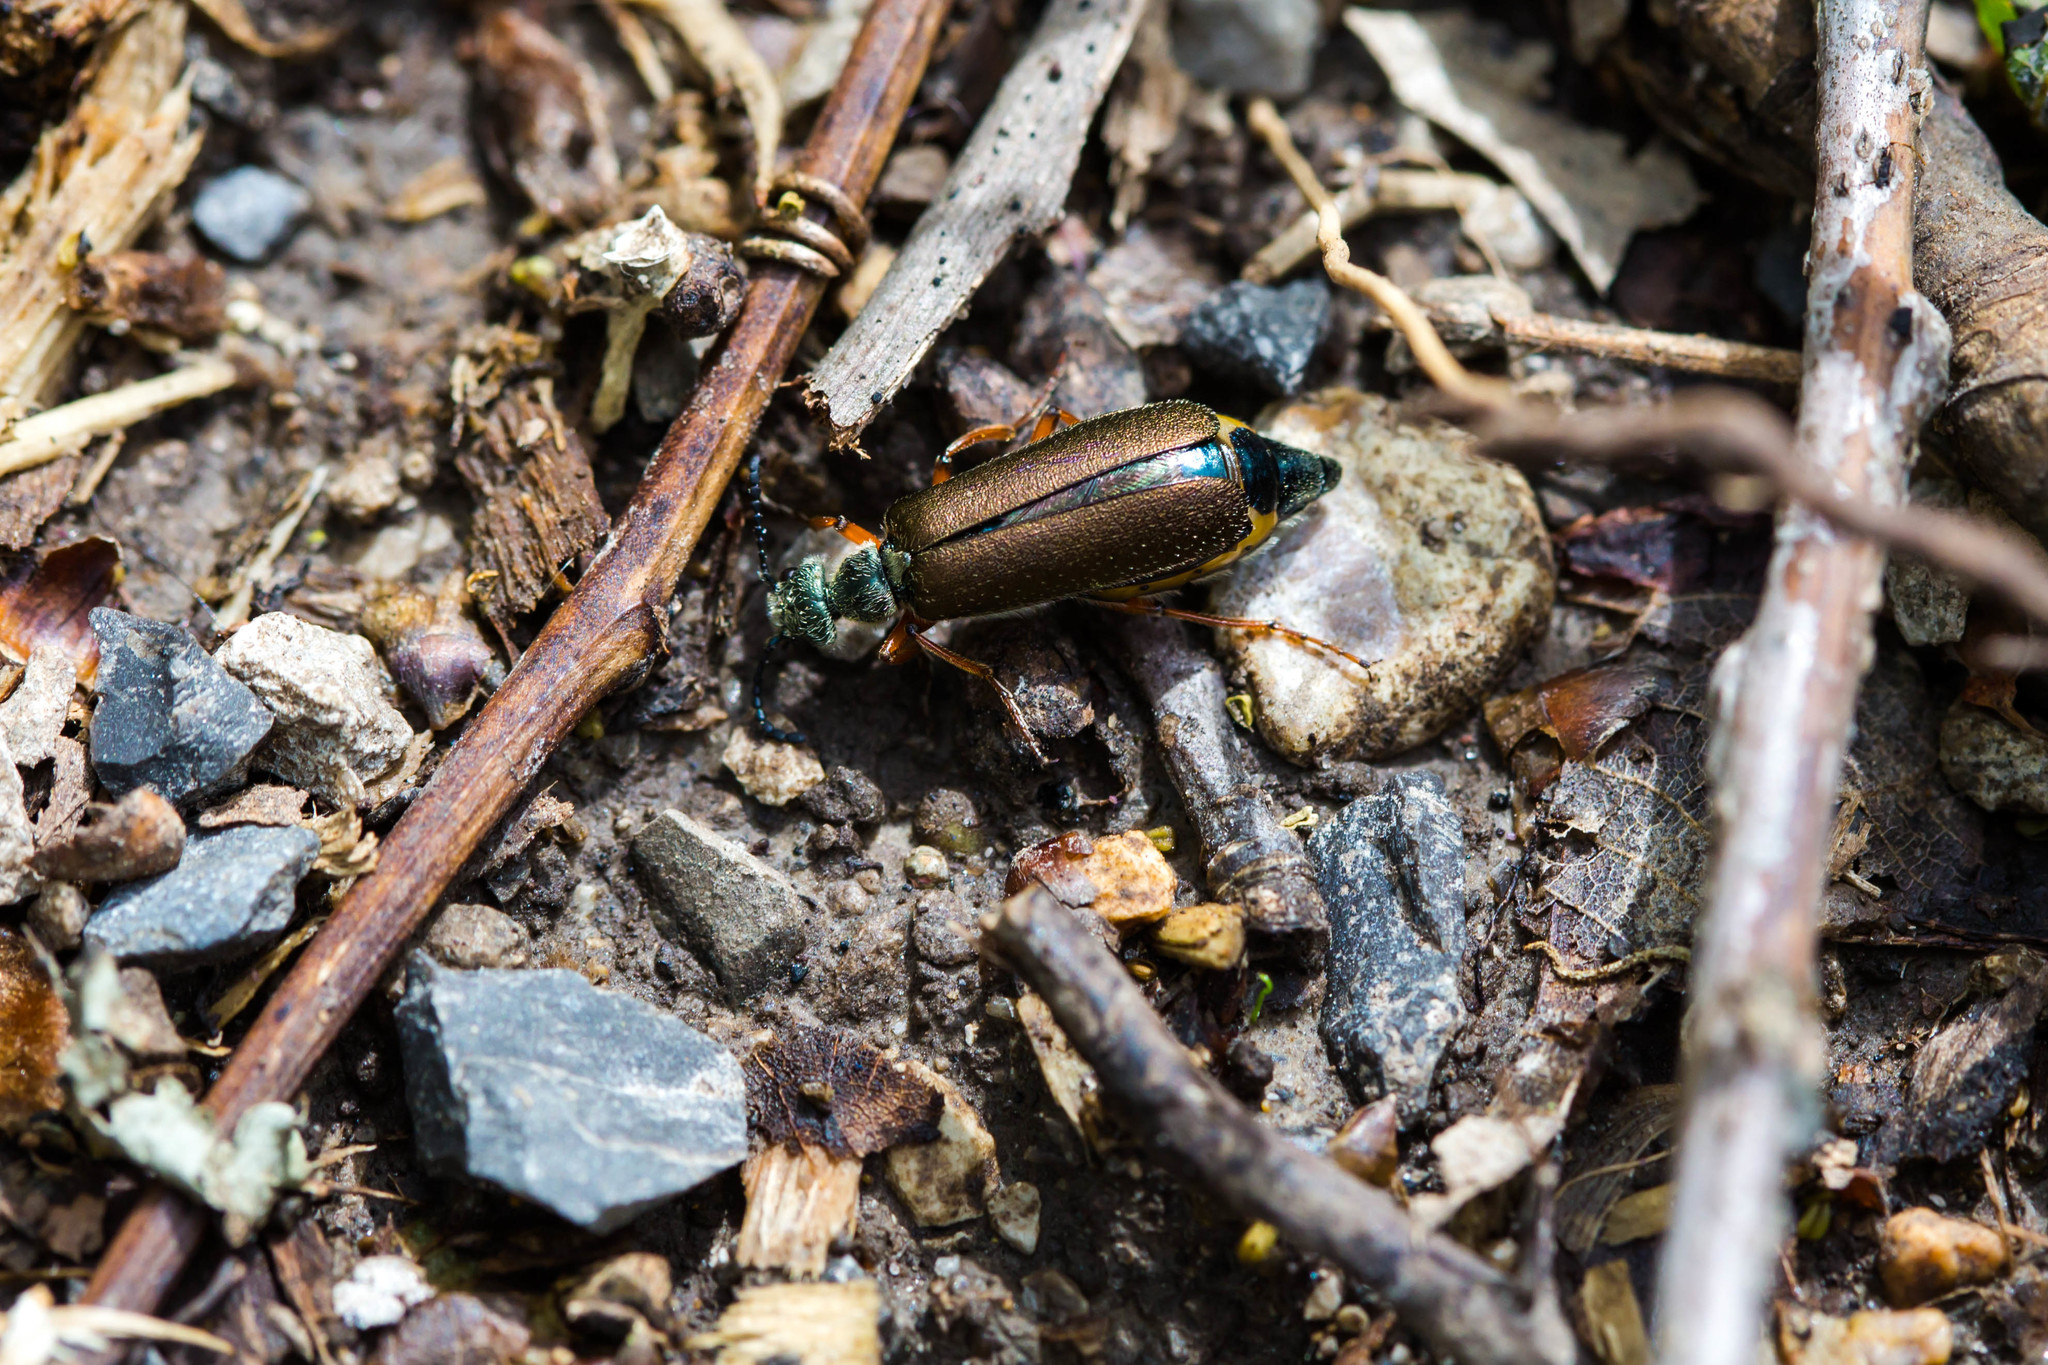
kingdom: Animalia
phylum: Arthropoda
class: Insecta
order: Coleoptera
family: Meloidae
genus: Lytta
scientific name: Lytta aenea
